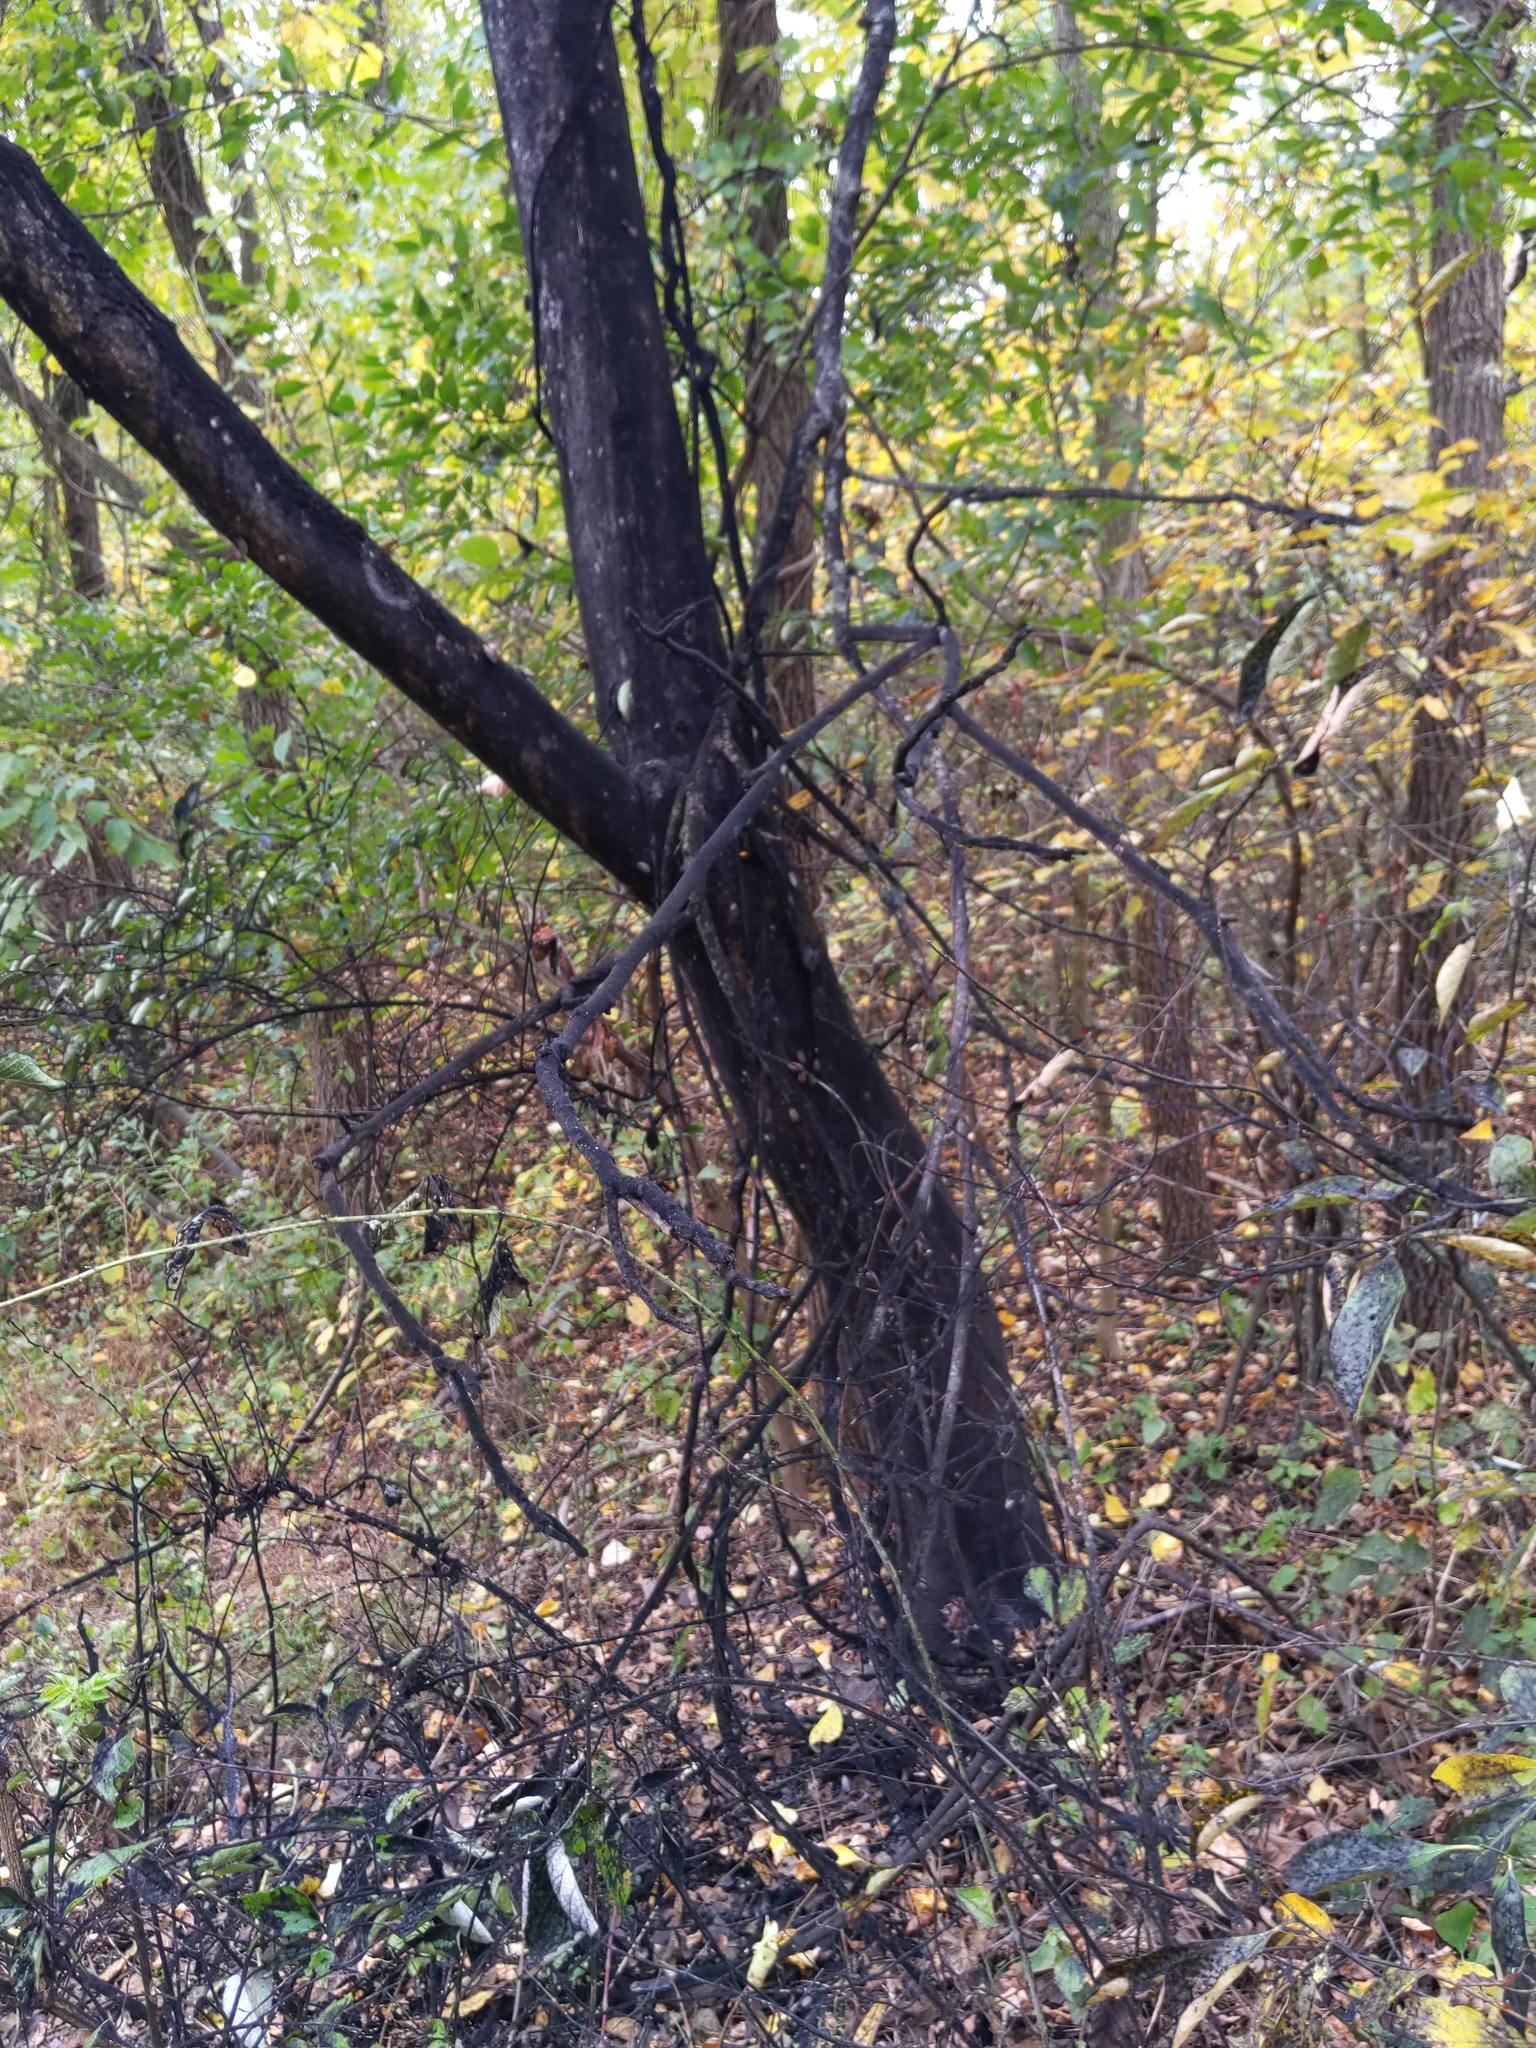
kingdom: Animalia
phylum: Arthropoda
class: Insecta
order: Hemiptera
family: Fulgoridae
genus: Lycorma
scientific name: Lycorma delicatula
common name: Spotted lanternfly
